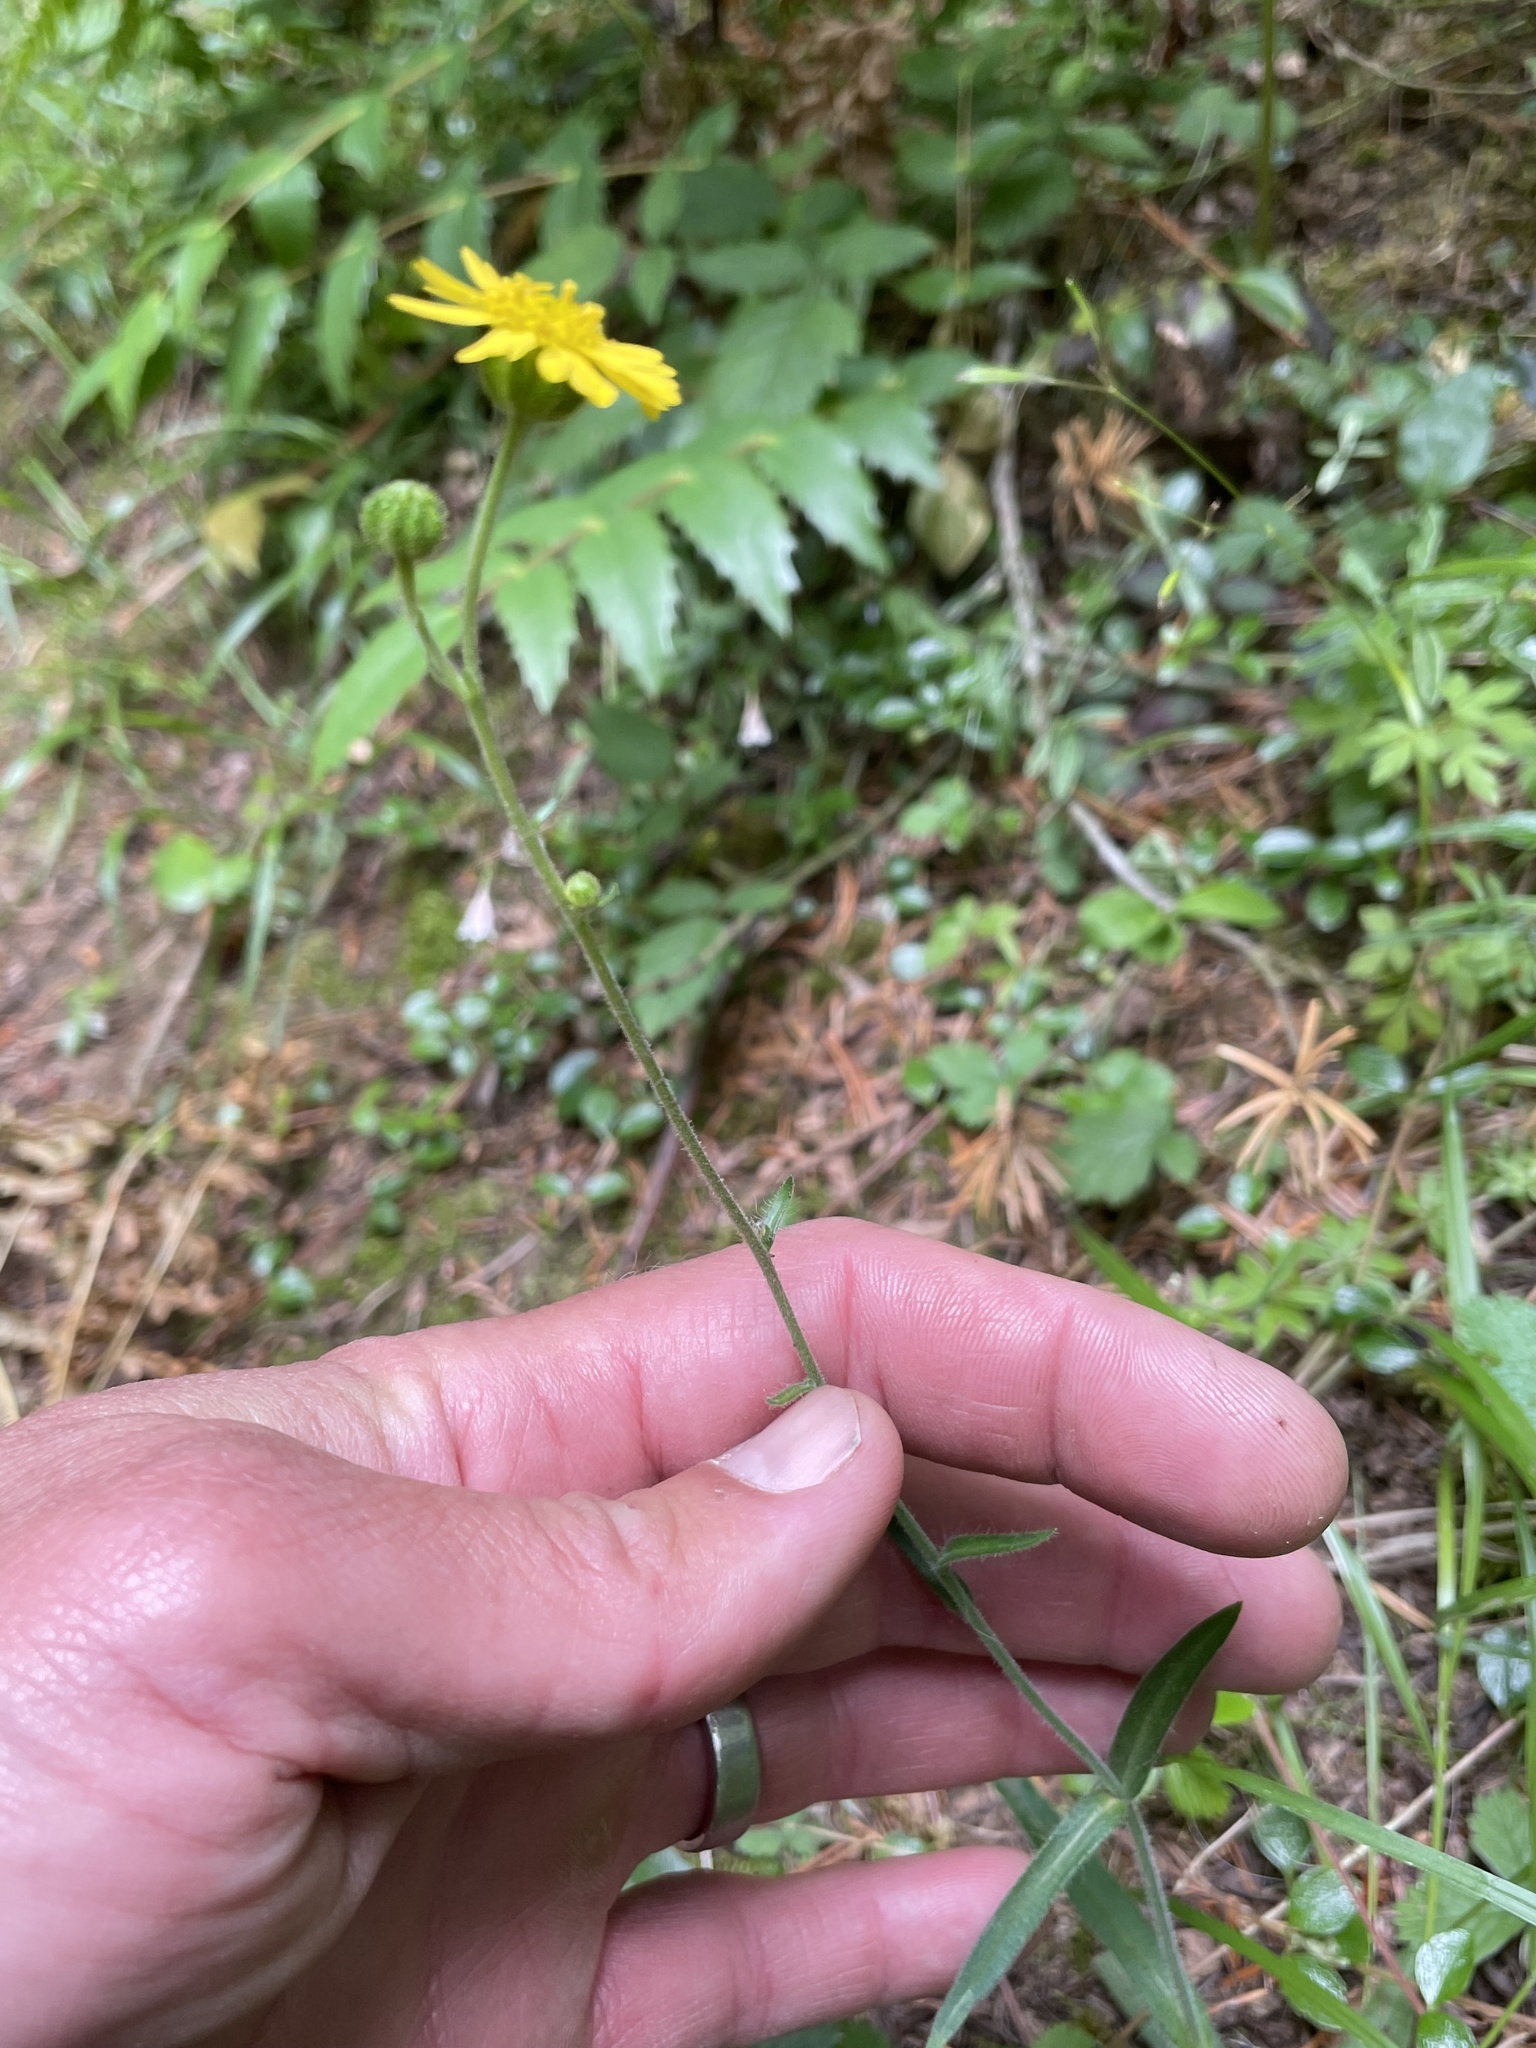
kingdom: Plantae
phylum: Tracheophyta
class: Magnoliopsida
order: Asterales
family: Asteraceae
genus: Anisocarpus
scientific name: Anisocarpus madioides
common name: Woodland madia
